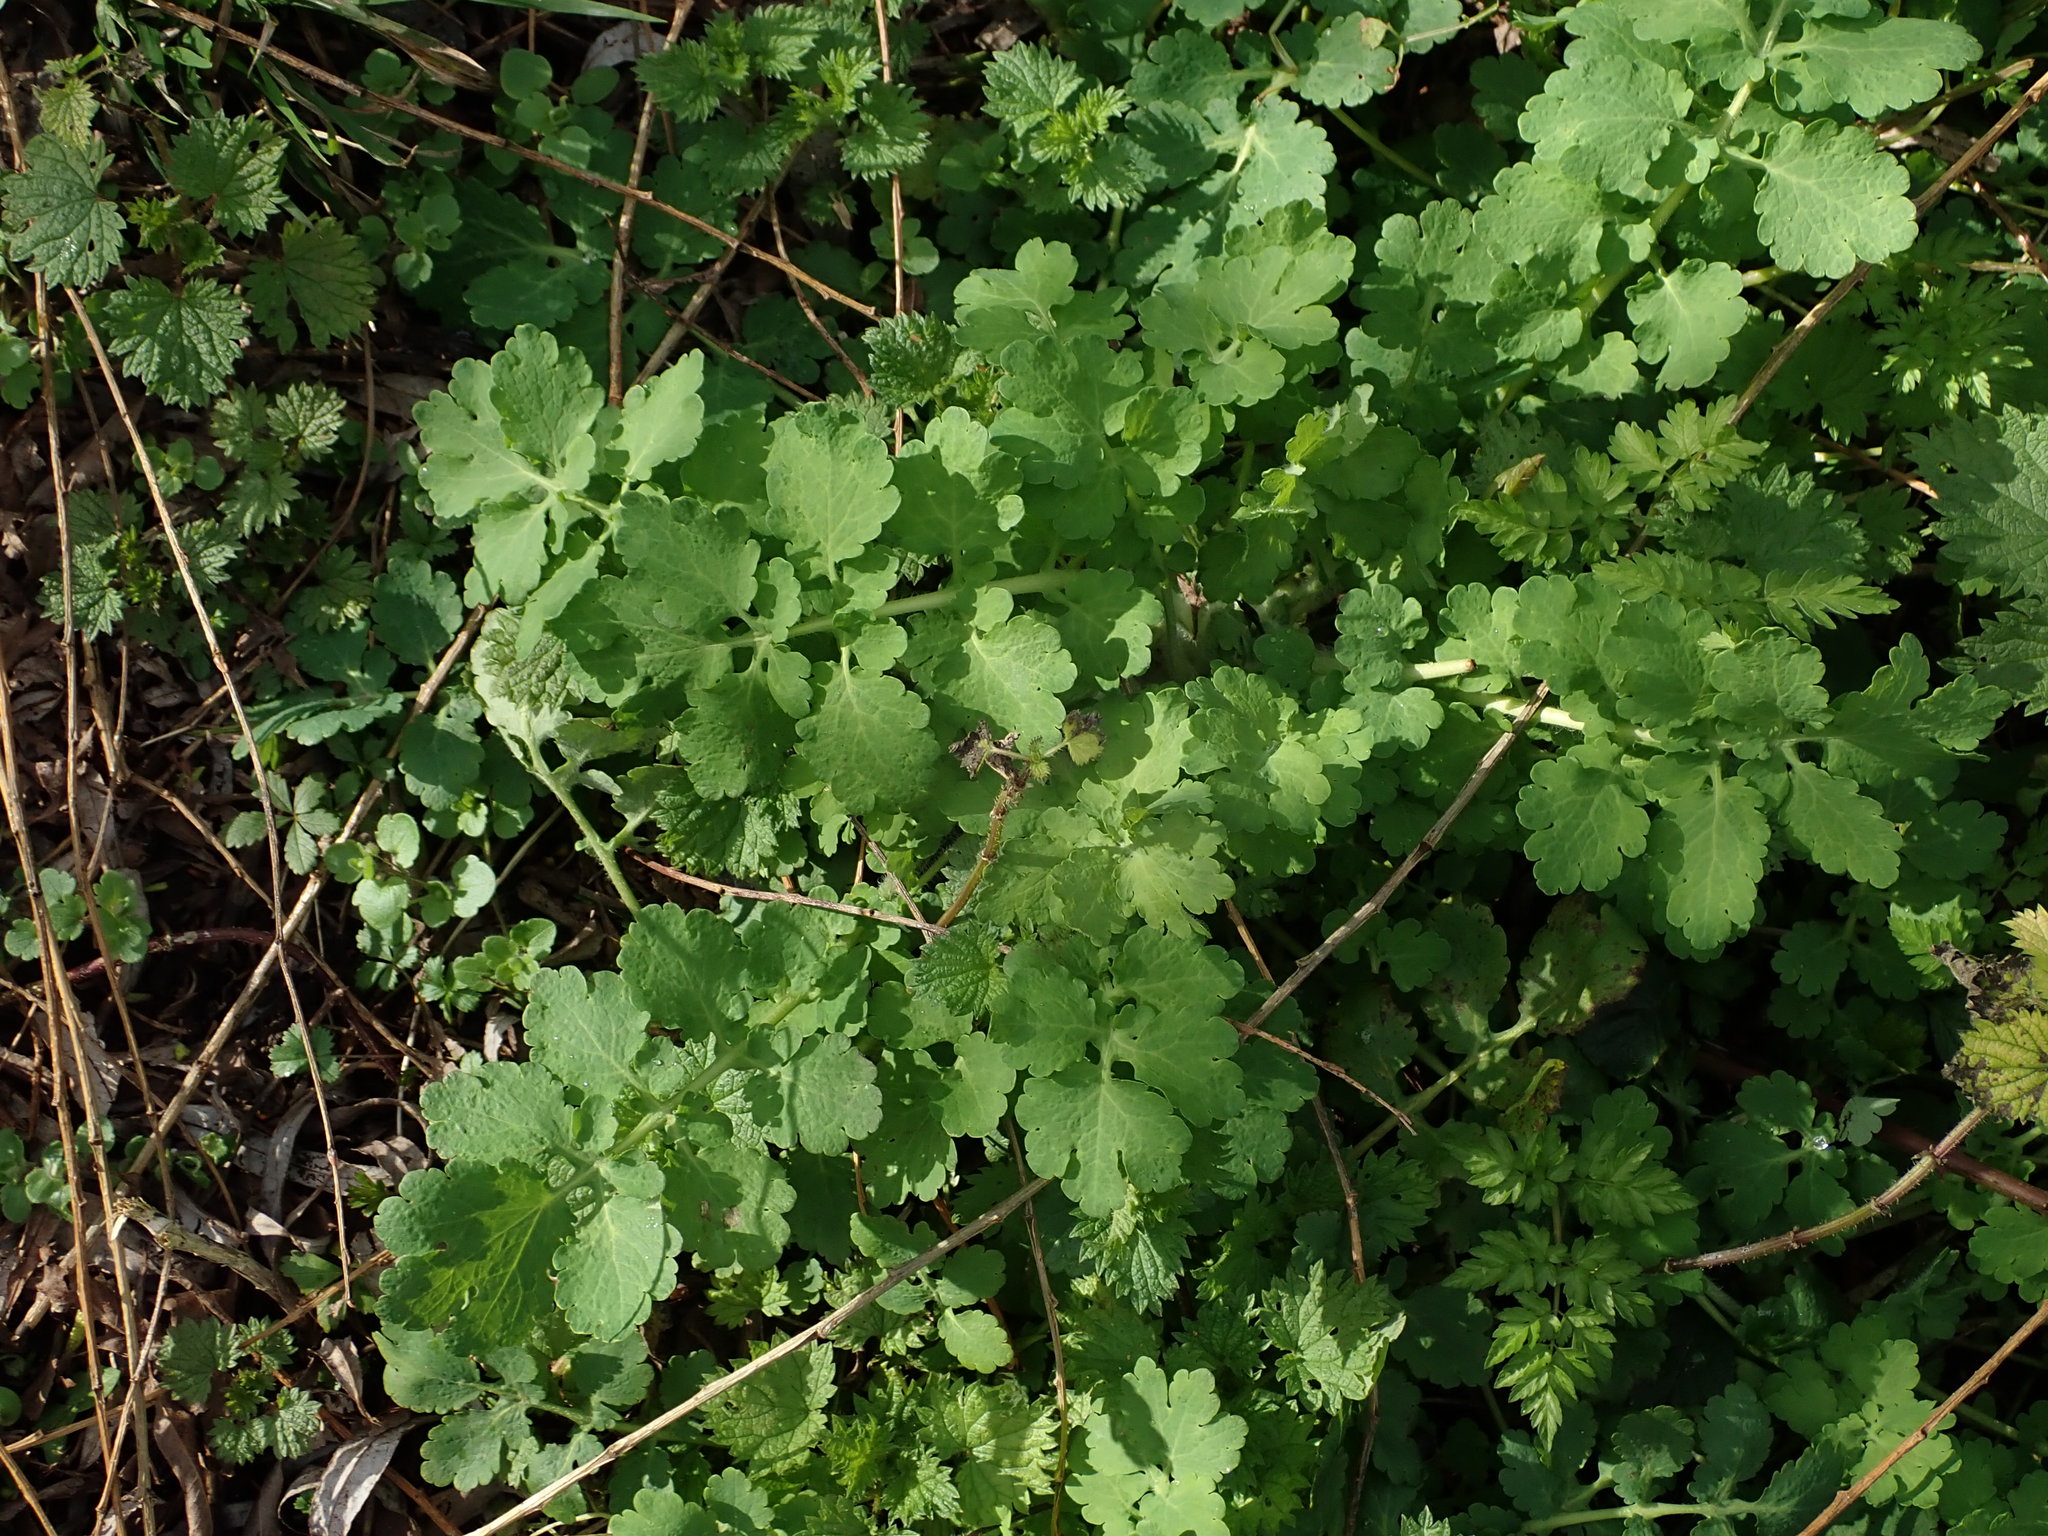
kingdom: Plantae
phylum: Tracheophyta
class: Magnoliopsida
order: Ranunculales
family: Papaveraceae
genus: Chelidonium
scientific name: Chelidonium majus
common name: Greater celandine
